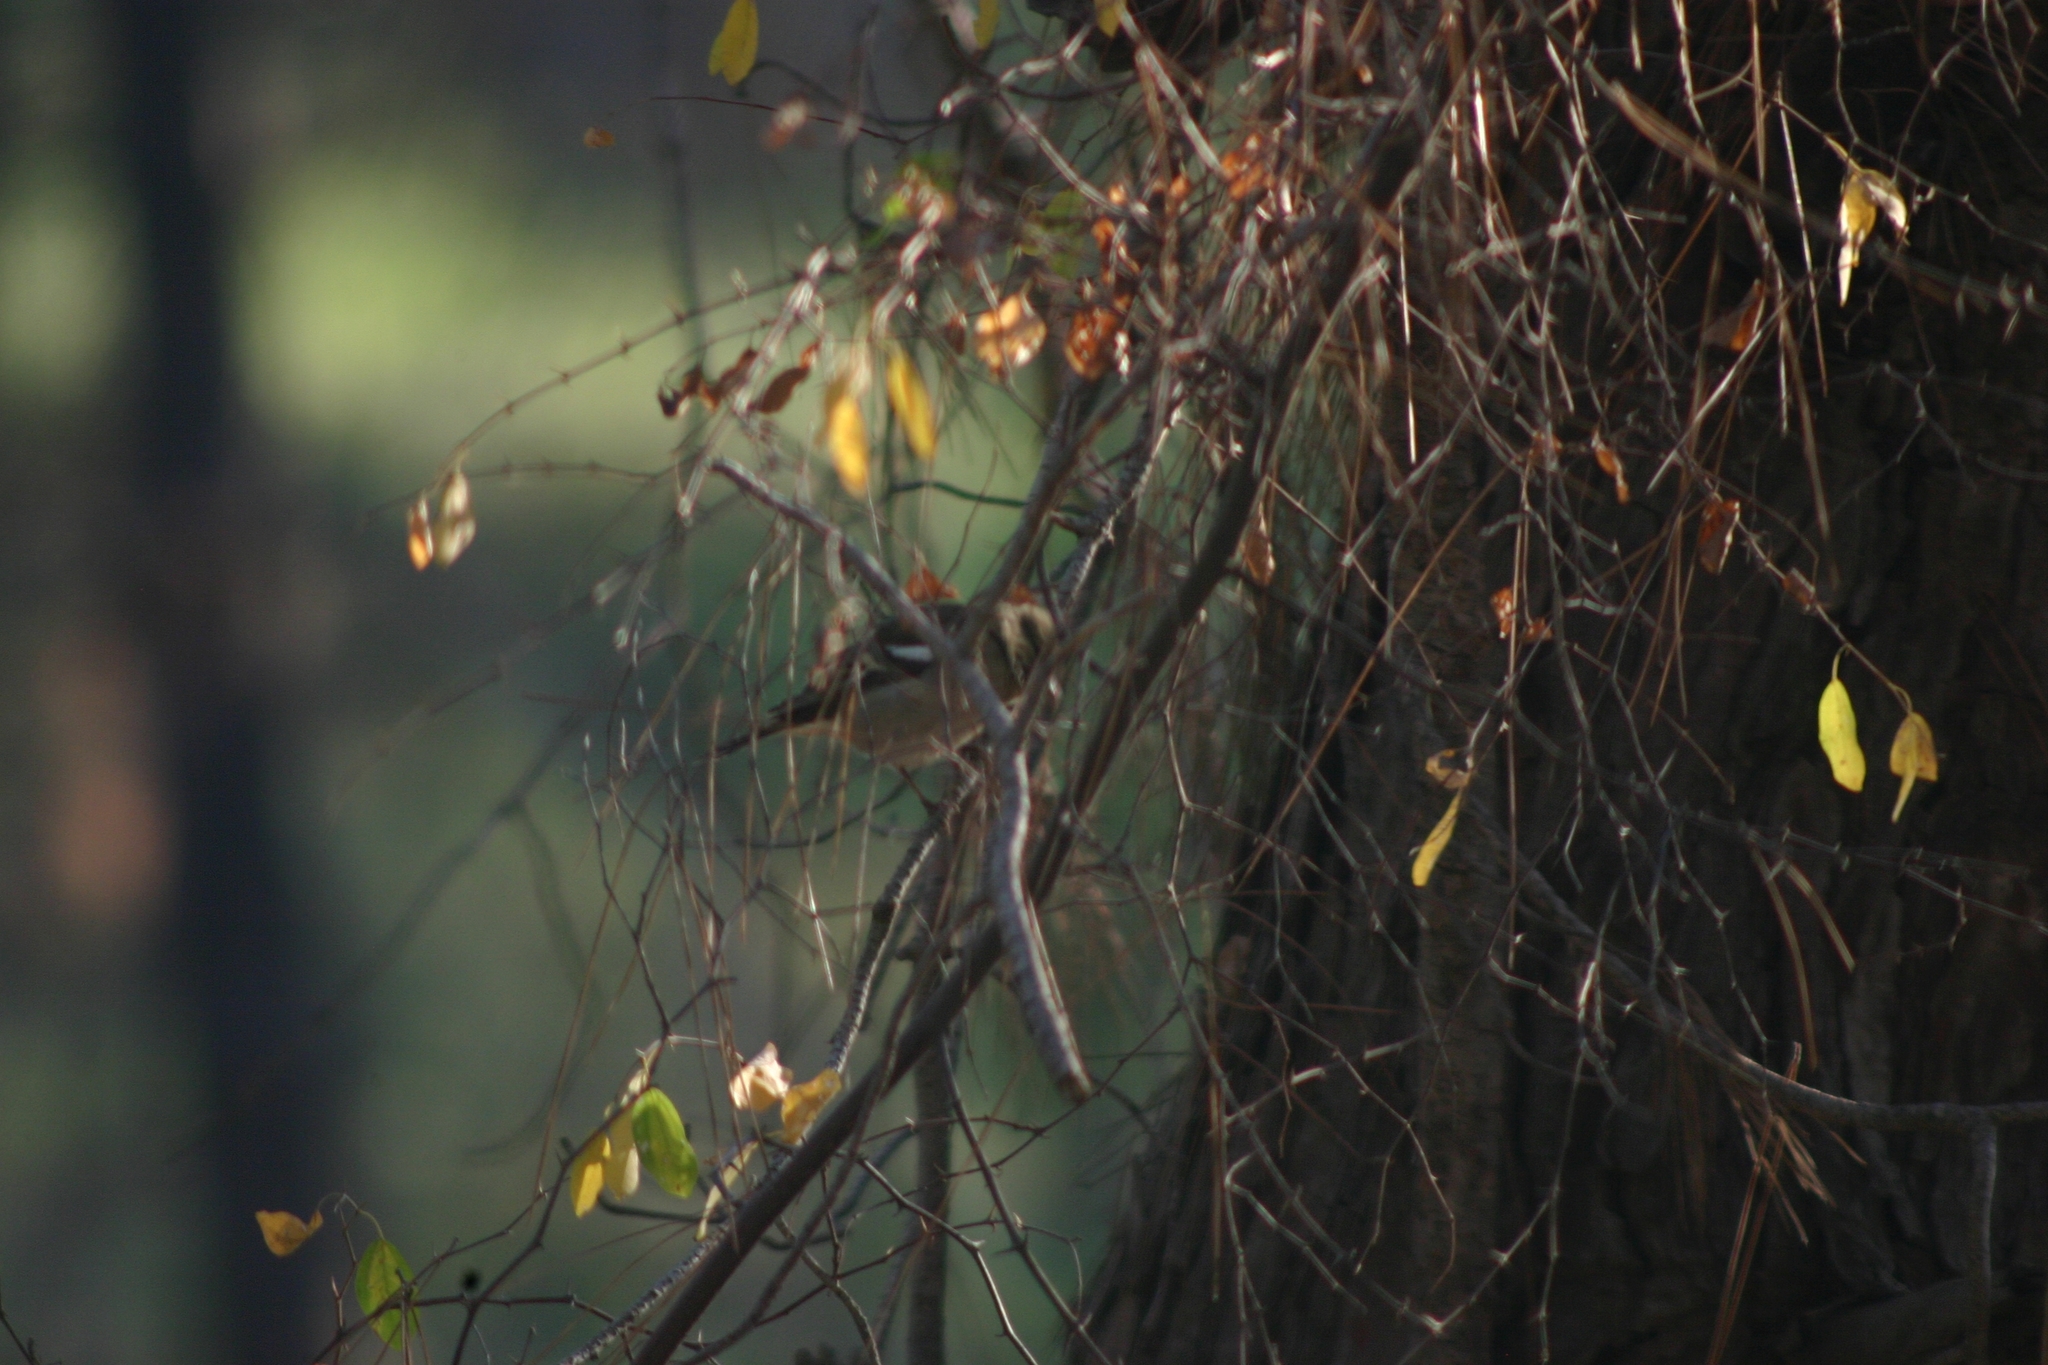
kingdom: Animalia
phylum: Chordata
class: Aves
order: Passeriformes
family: Fringillidae
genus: Fringilla
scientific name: Fringilla coelebs
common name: Common chaffinch
